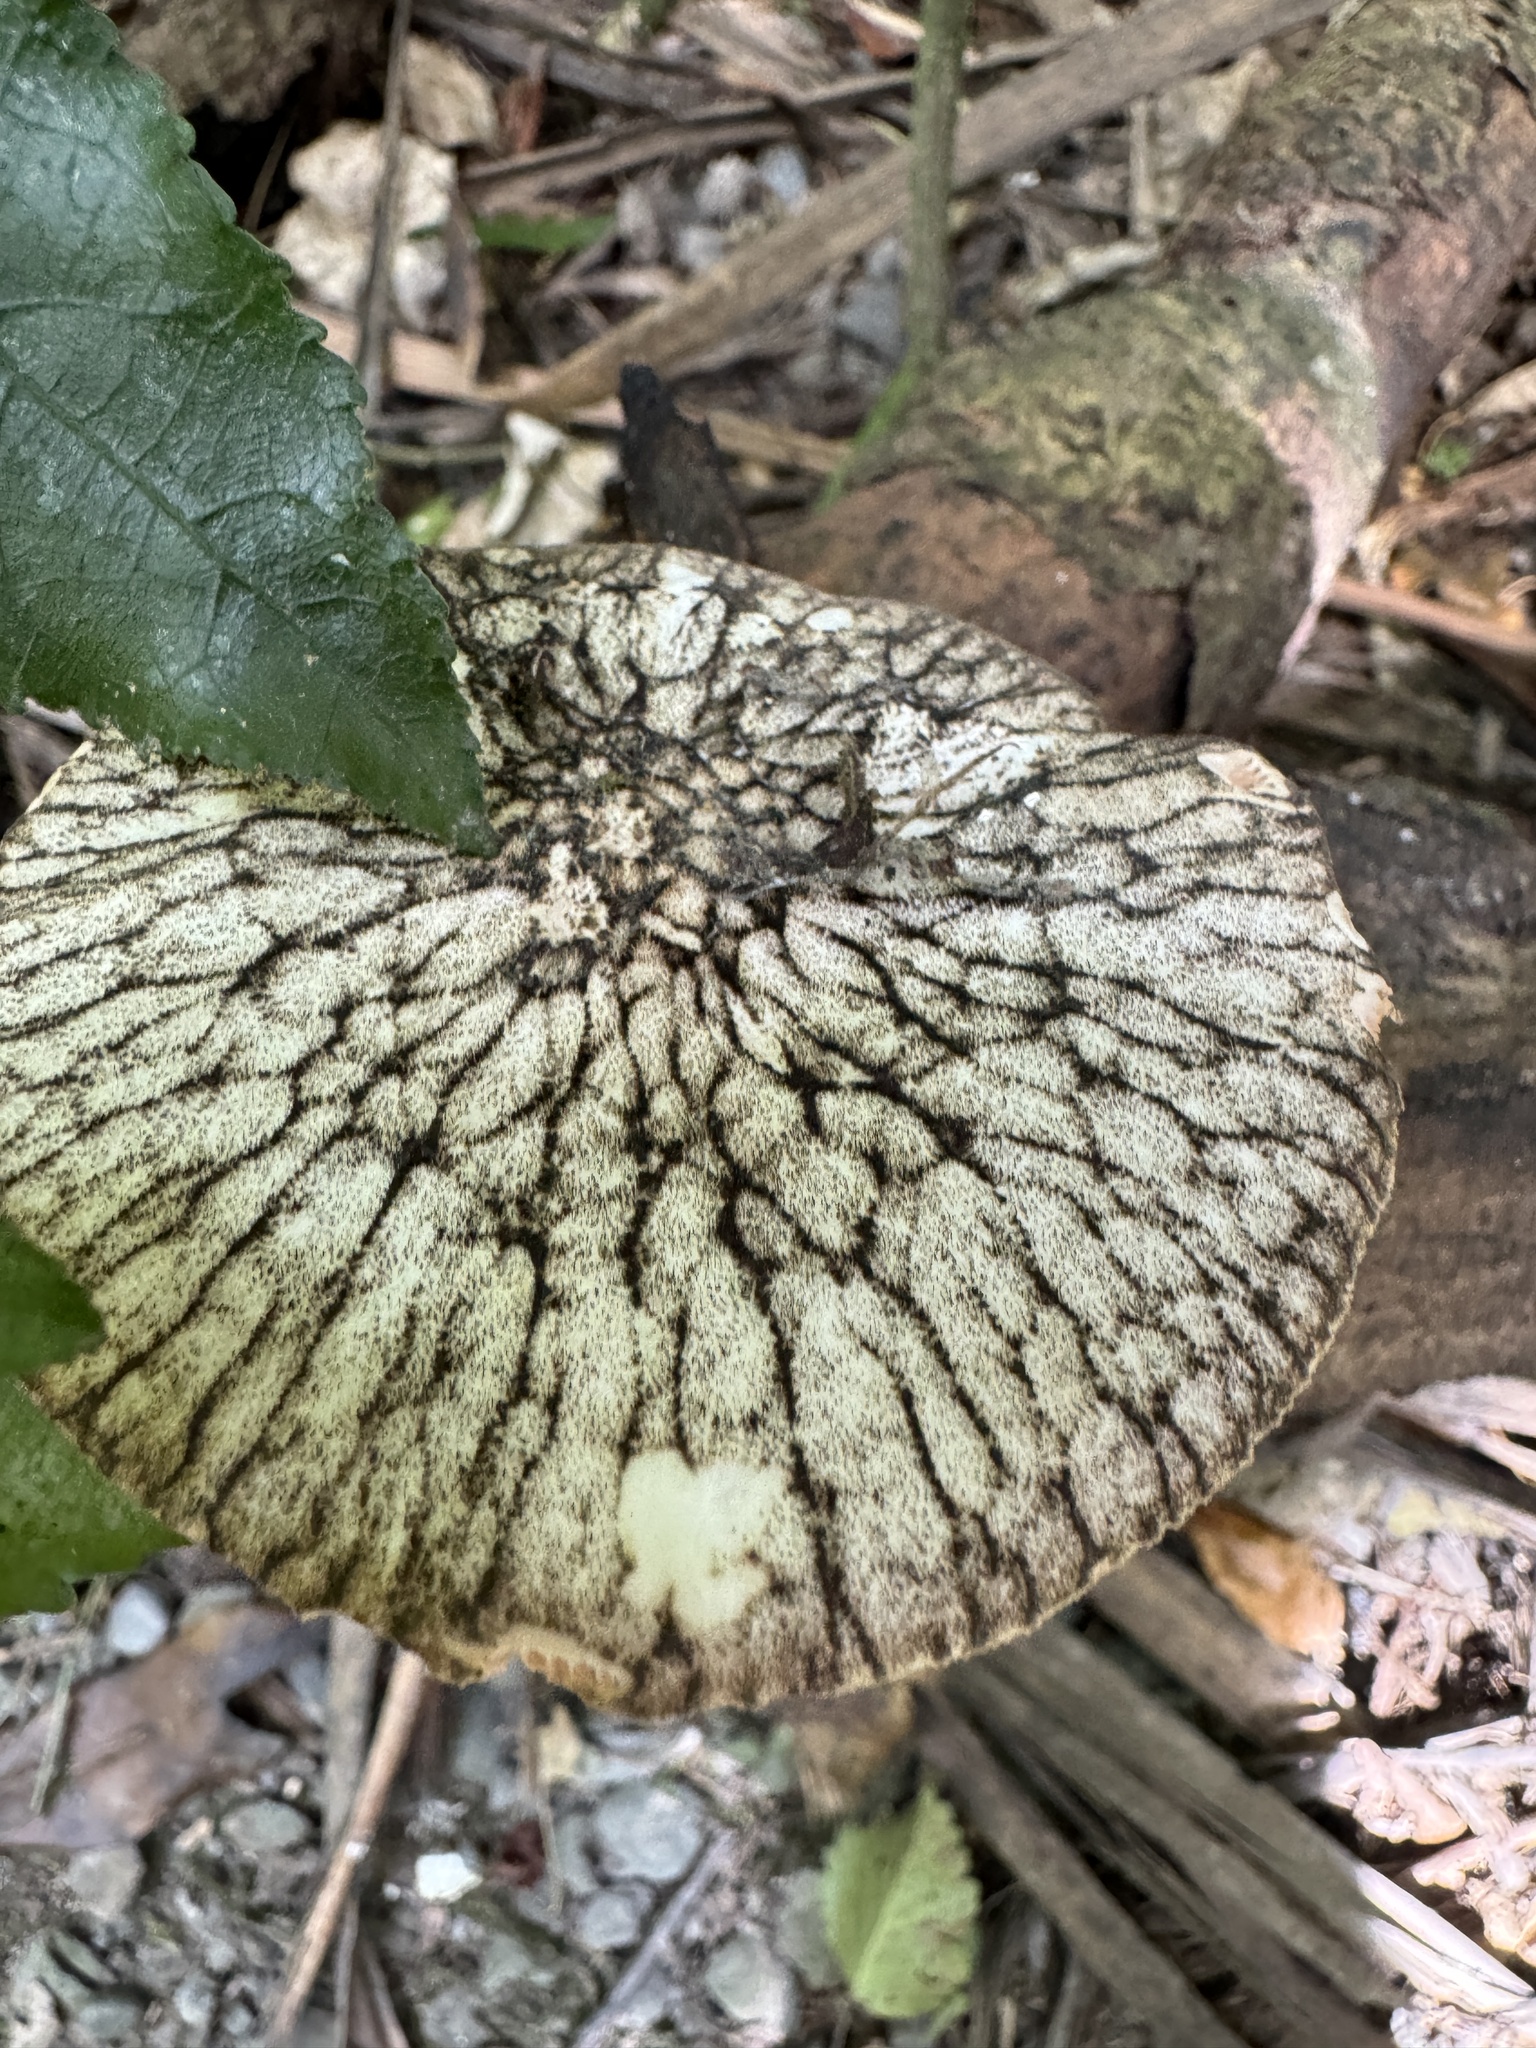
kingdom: Fungi
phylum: Basidiomycota
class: Agaricomycetes
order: Agaricales
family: Pluteaceae
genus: Pluteus
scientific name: Pluteus readiarum
